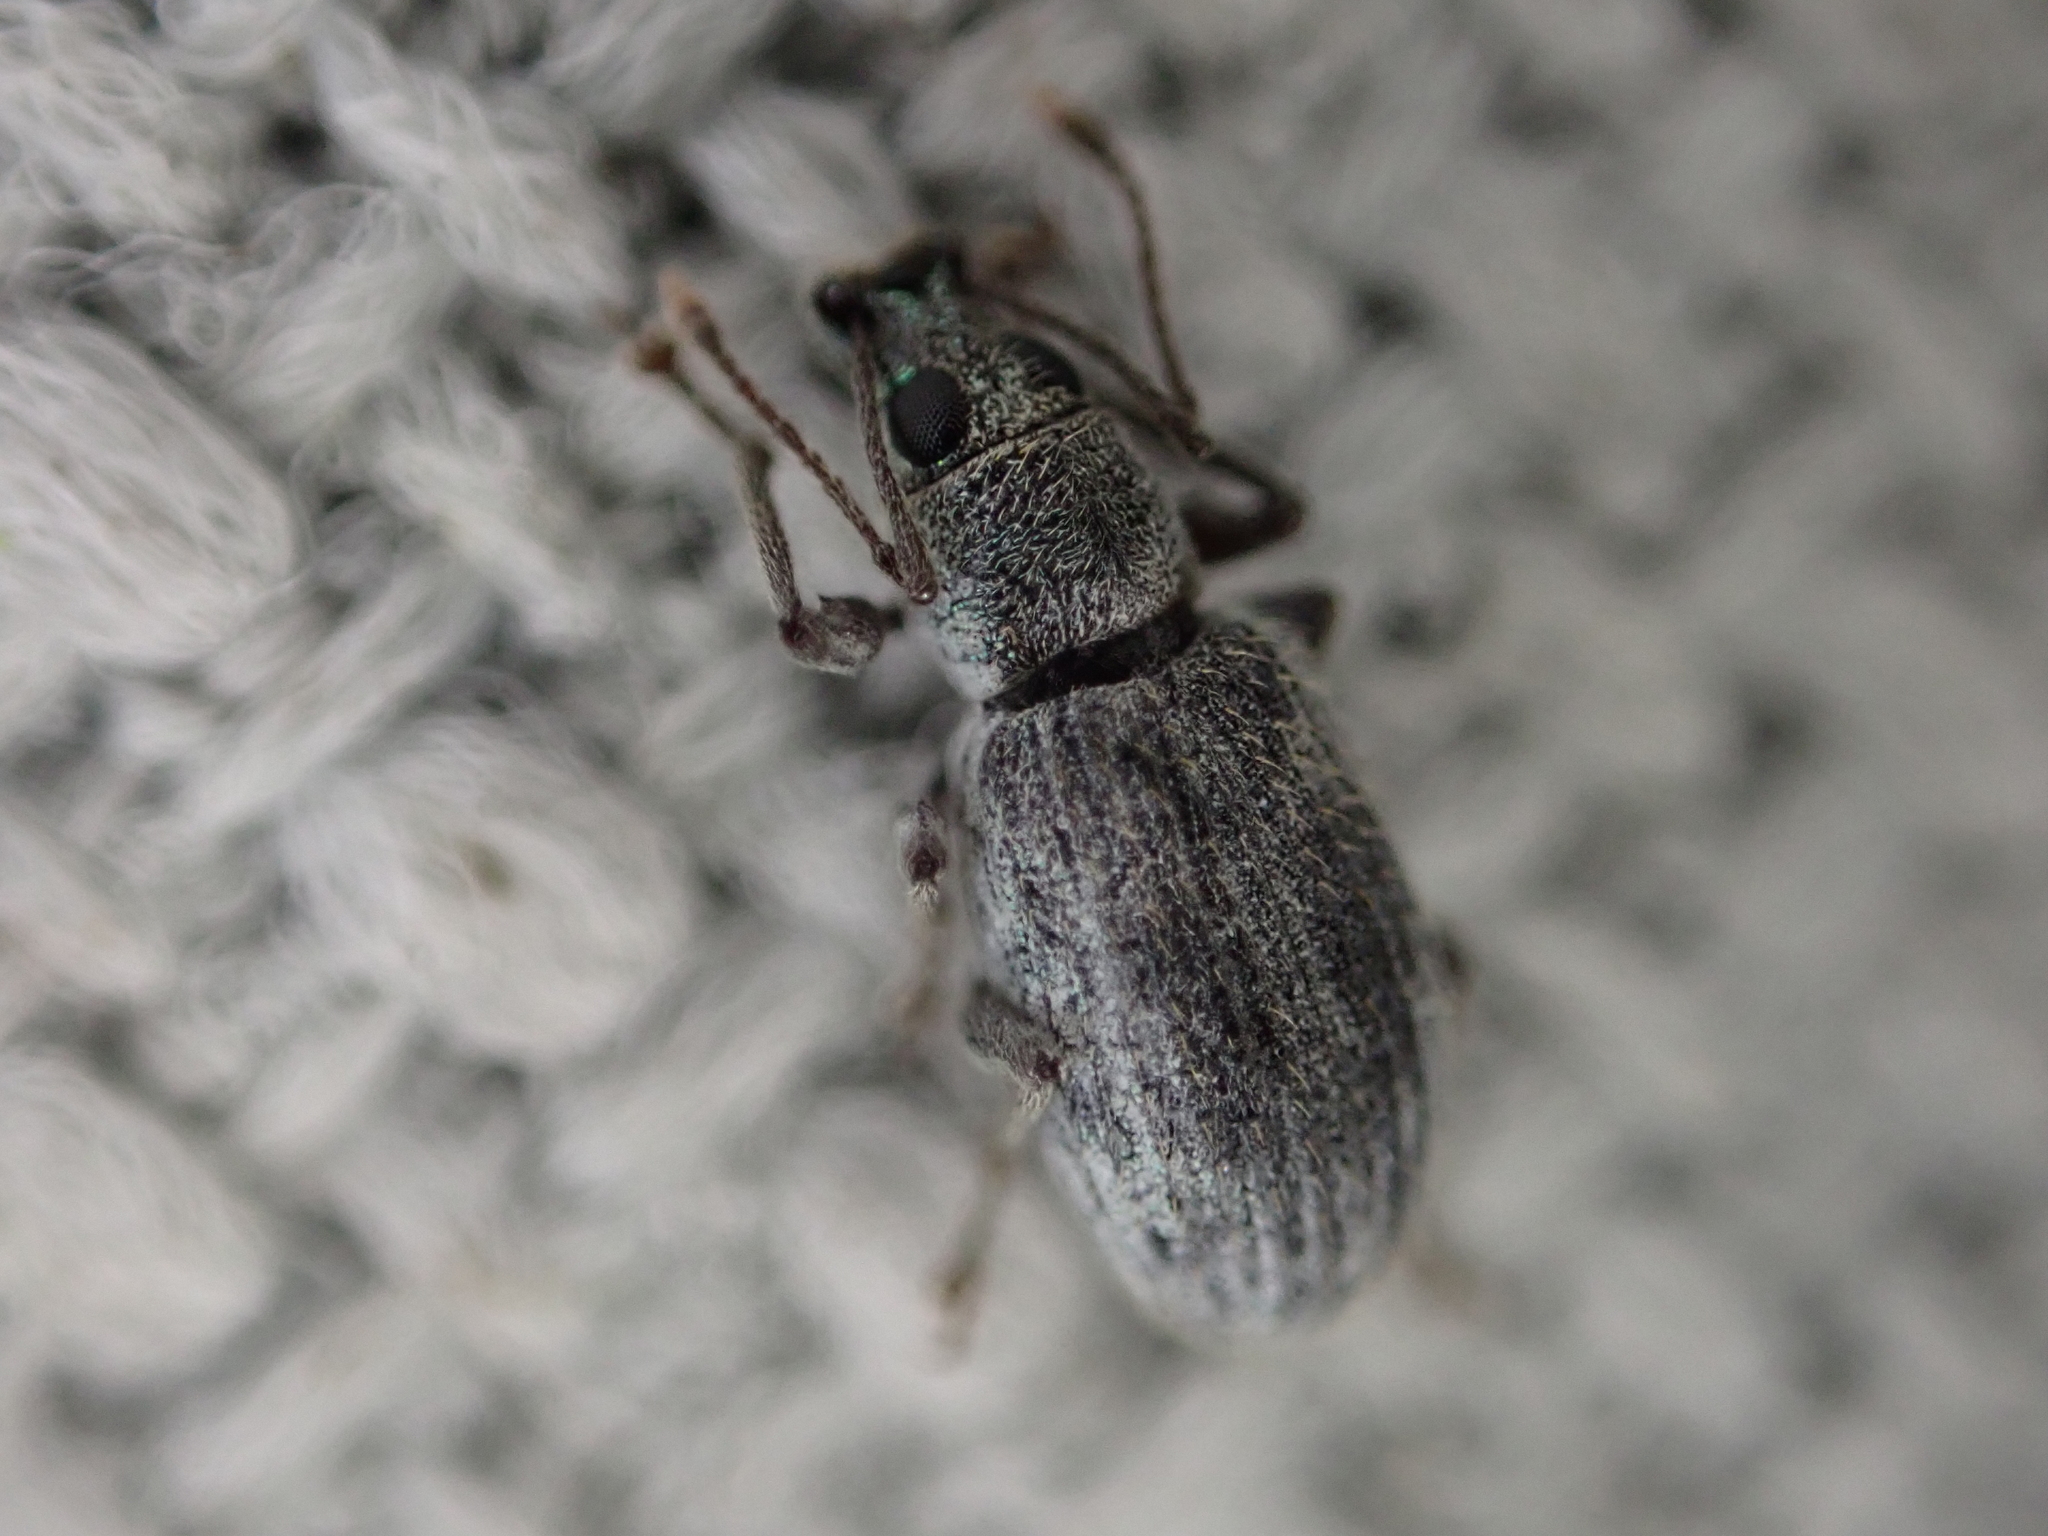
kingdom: Animalia
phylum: Arthropoda
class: Insecta
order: Coleoptera
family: Curculionidae
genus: Cyrtepistomus
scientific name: Cyrtepistomus castaneus
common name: Weevil
